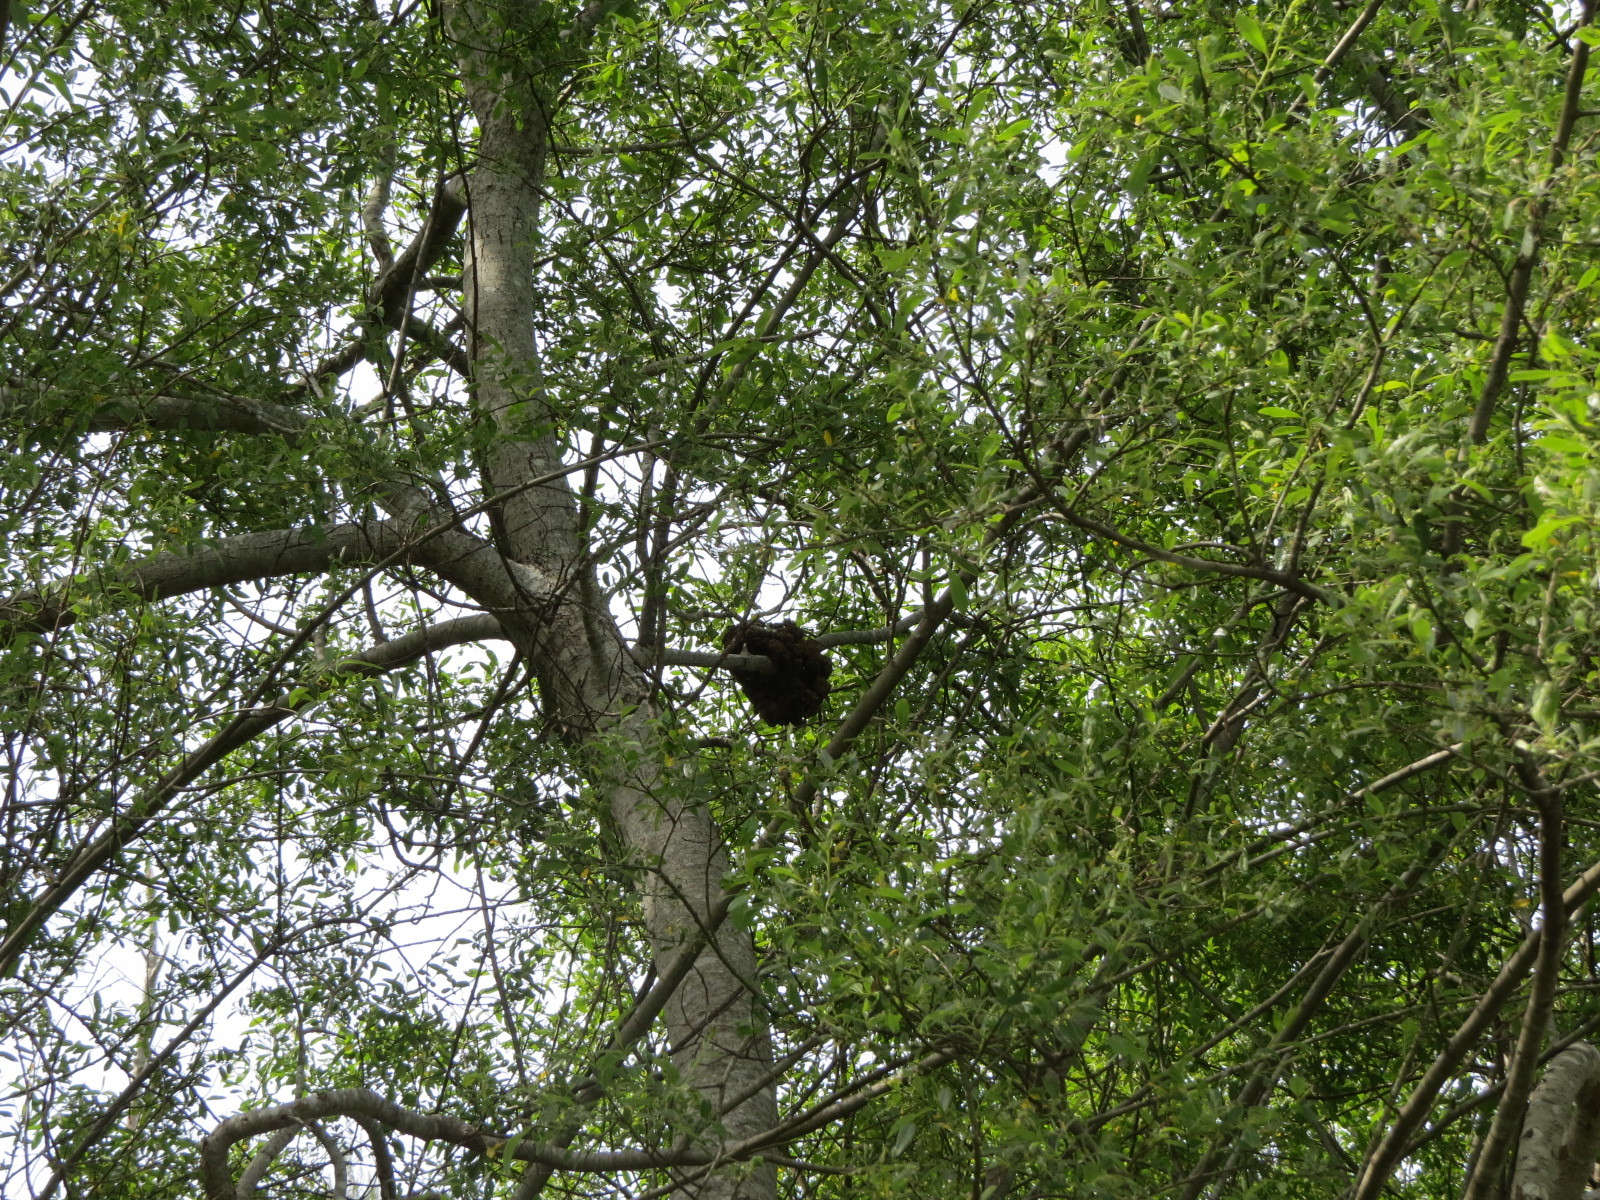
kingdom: Bacteria
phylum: Proteobacteria
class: Alphaproteobacteria
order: Rhizobiales
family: Rhizobiaceae
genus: Rhizobium
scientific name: Rhizobium Agrobacterium radiobacter
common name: Bacterial crown gall
